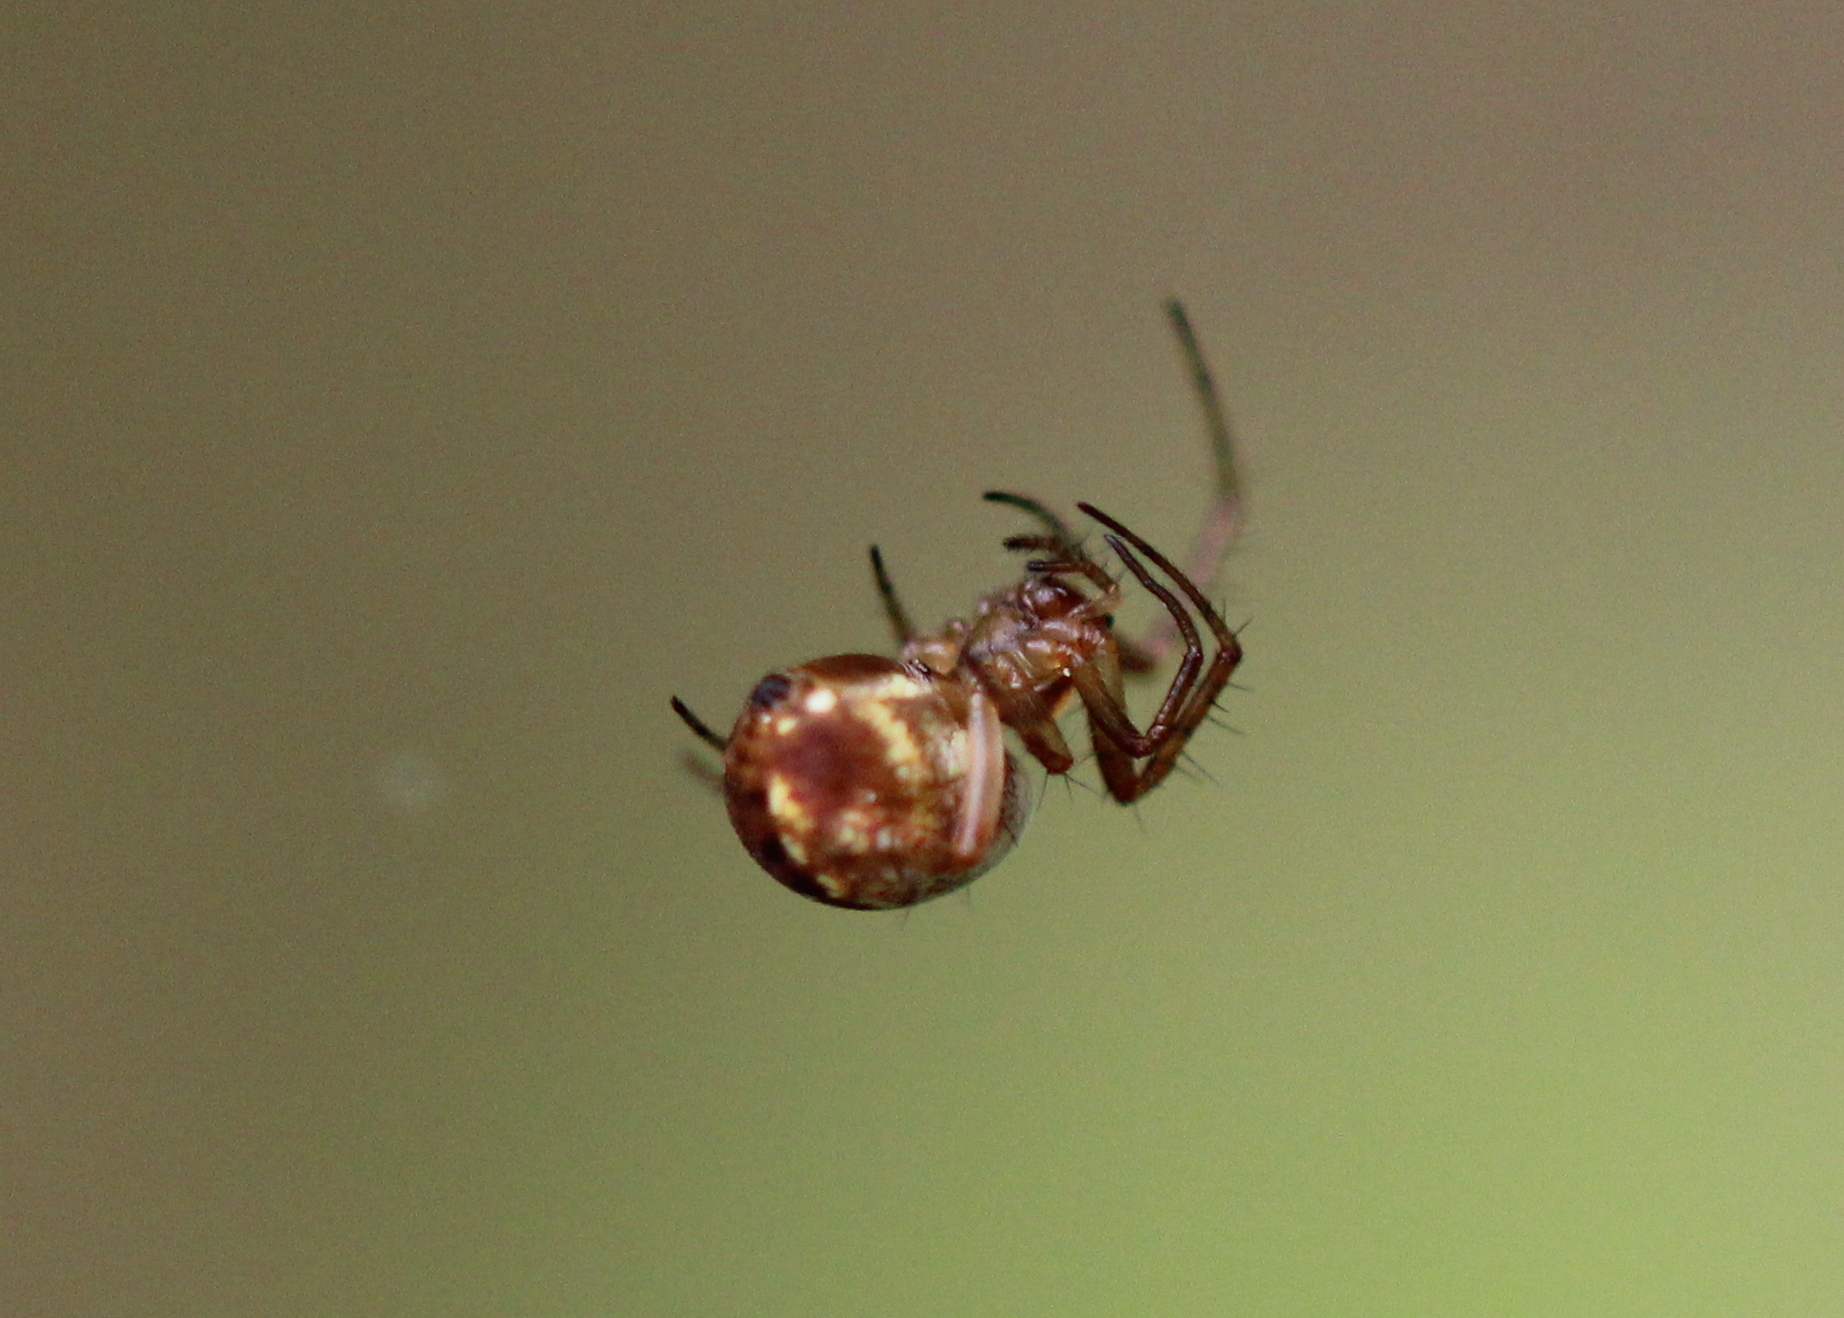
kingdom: Animalia
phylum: Arthropoda
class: Arachnida
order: Araneae
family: Araneidae
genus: Mangora
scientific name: Mangora placida
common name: Tuft-legged orbweaver
